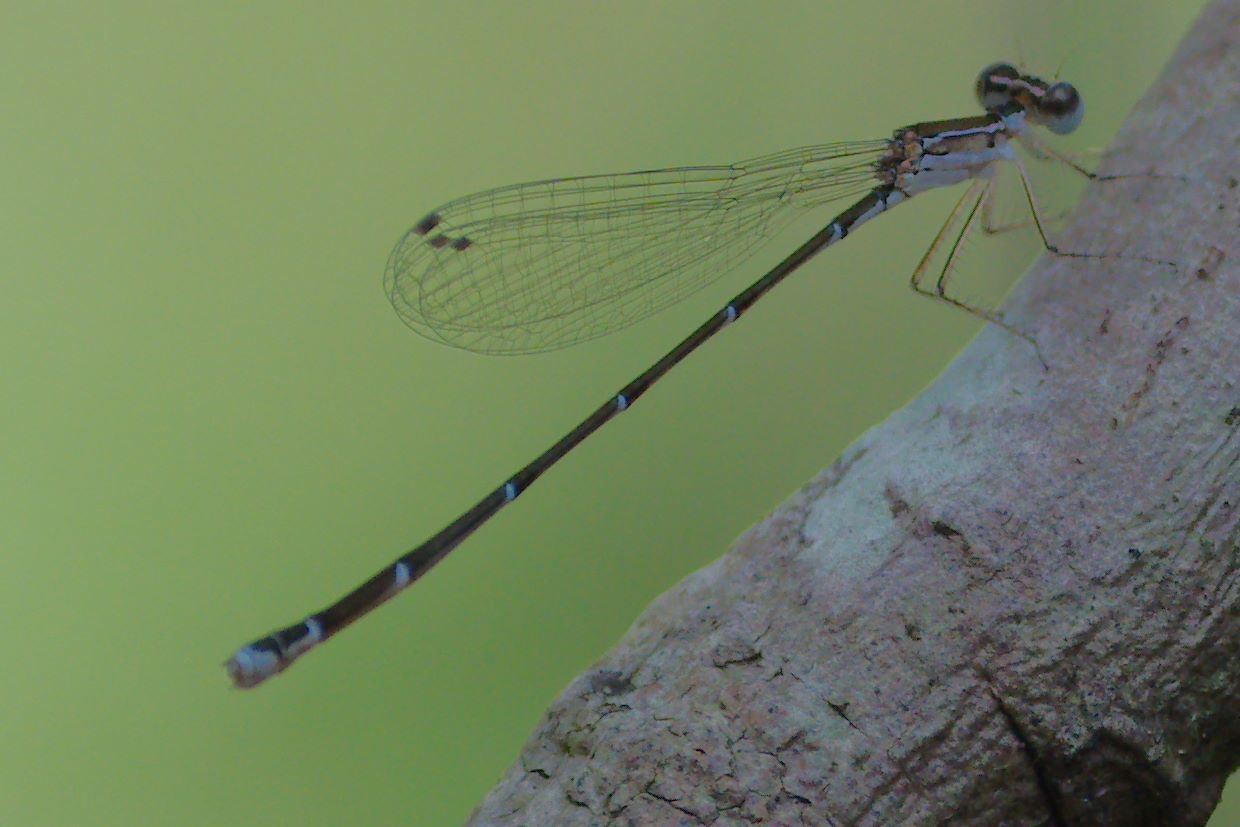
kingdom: Animalia
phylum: Arthropoda
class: Insecta
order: Odonata
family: Coenagrionidae
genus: Nehalennia
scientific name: Nehalennia pallidula
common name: Everglades sprite
